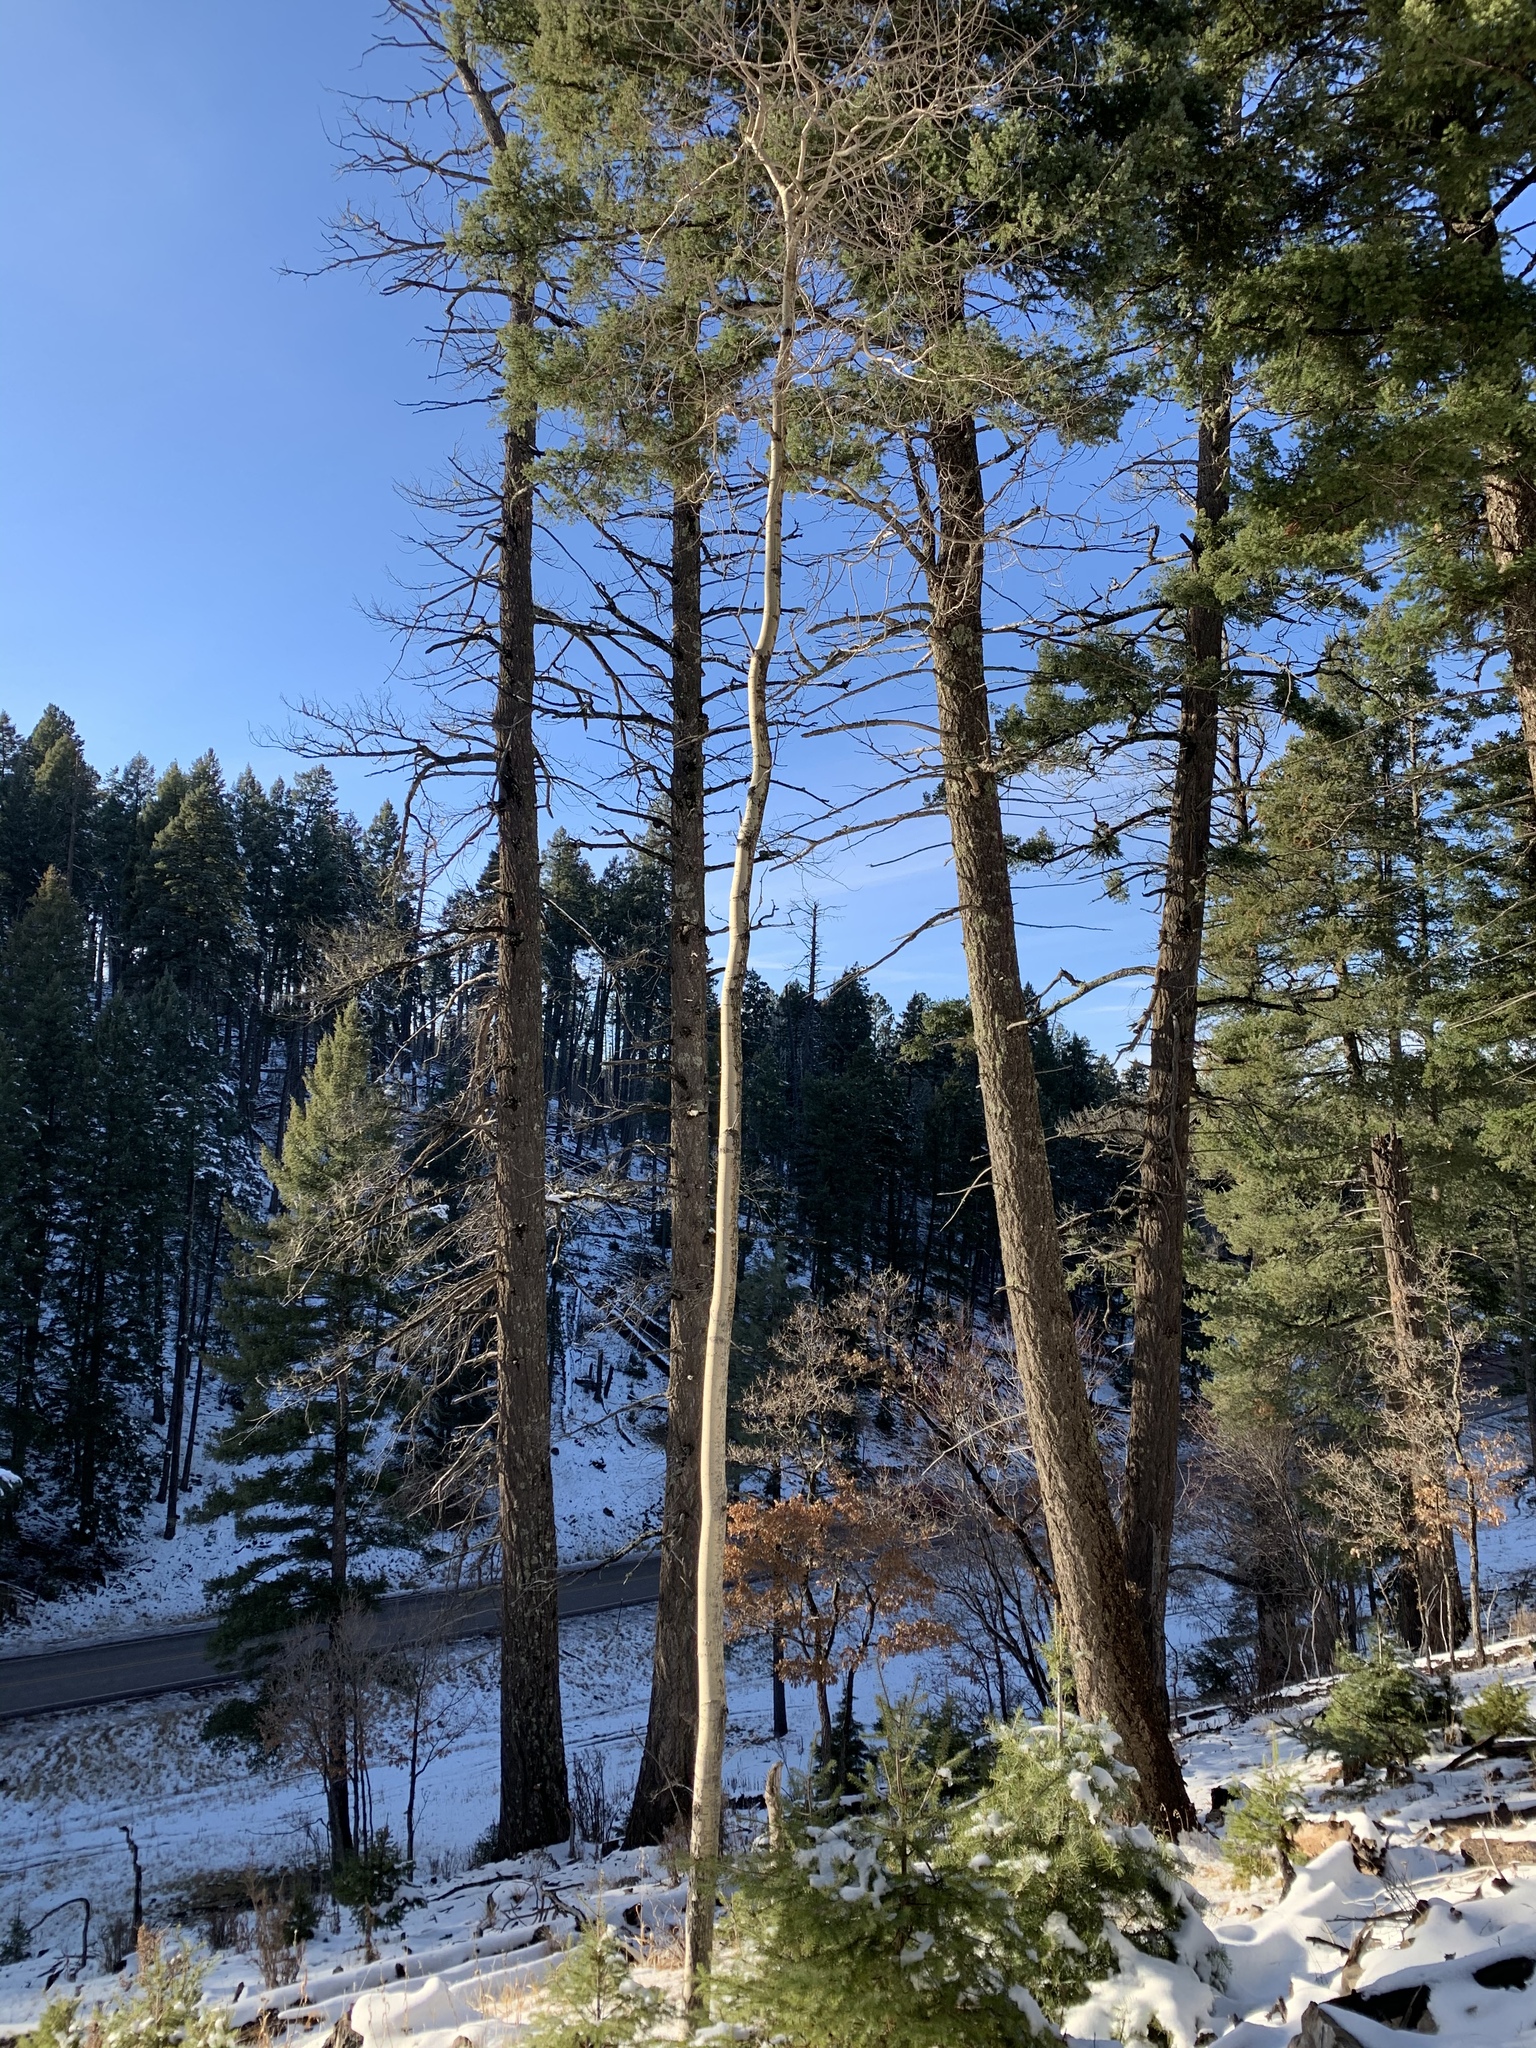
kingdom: Plantae
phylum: Tracheophyta
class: Magnoliopsida
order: Malpighiales
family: Salicaceae
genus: Populus
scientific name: Populus tremuloides
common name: Quaking aspen
